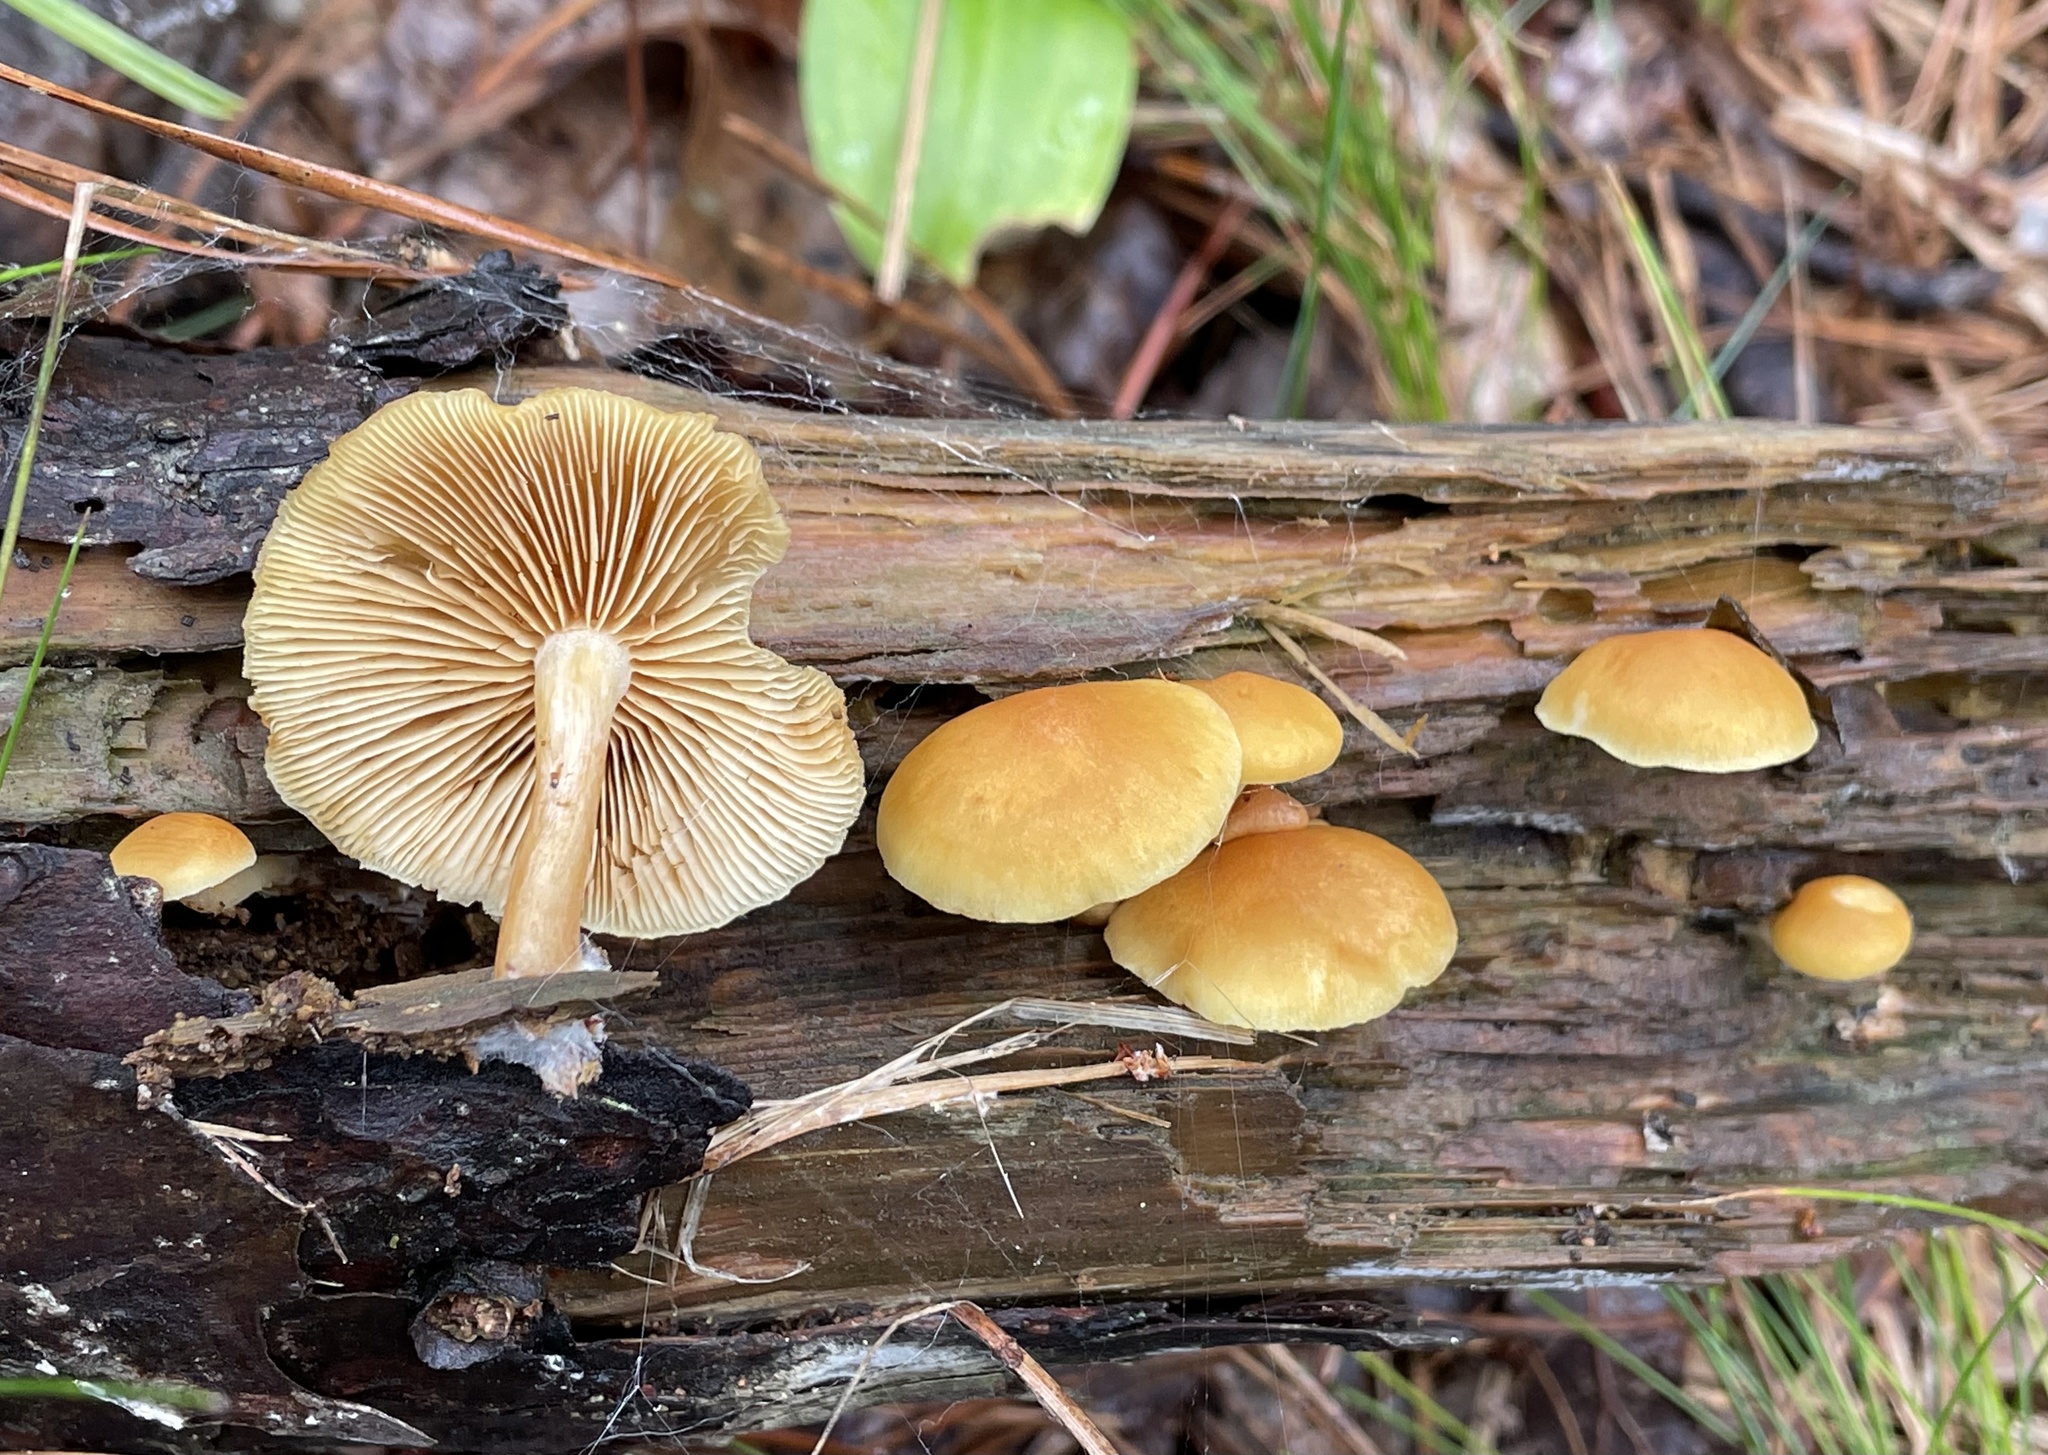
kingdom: Fungi
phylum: Basidiomycota
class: Agaricomycetes
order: Agaricales
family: Hymenogastraceae
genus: Gymnopilus
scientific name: Gymnopilus penetrans
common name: Common rustgill
